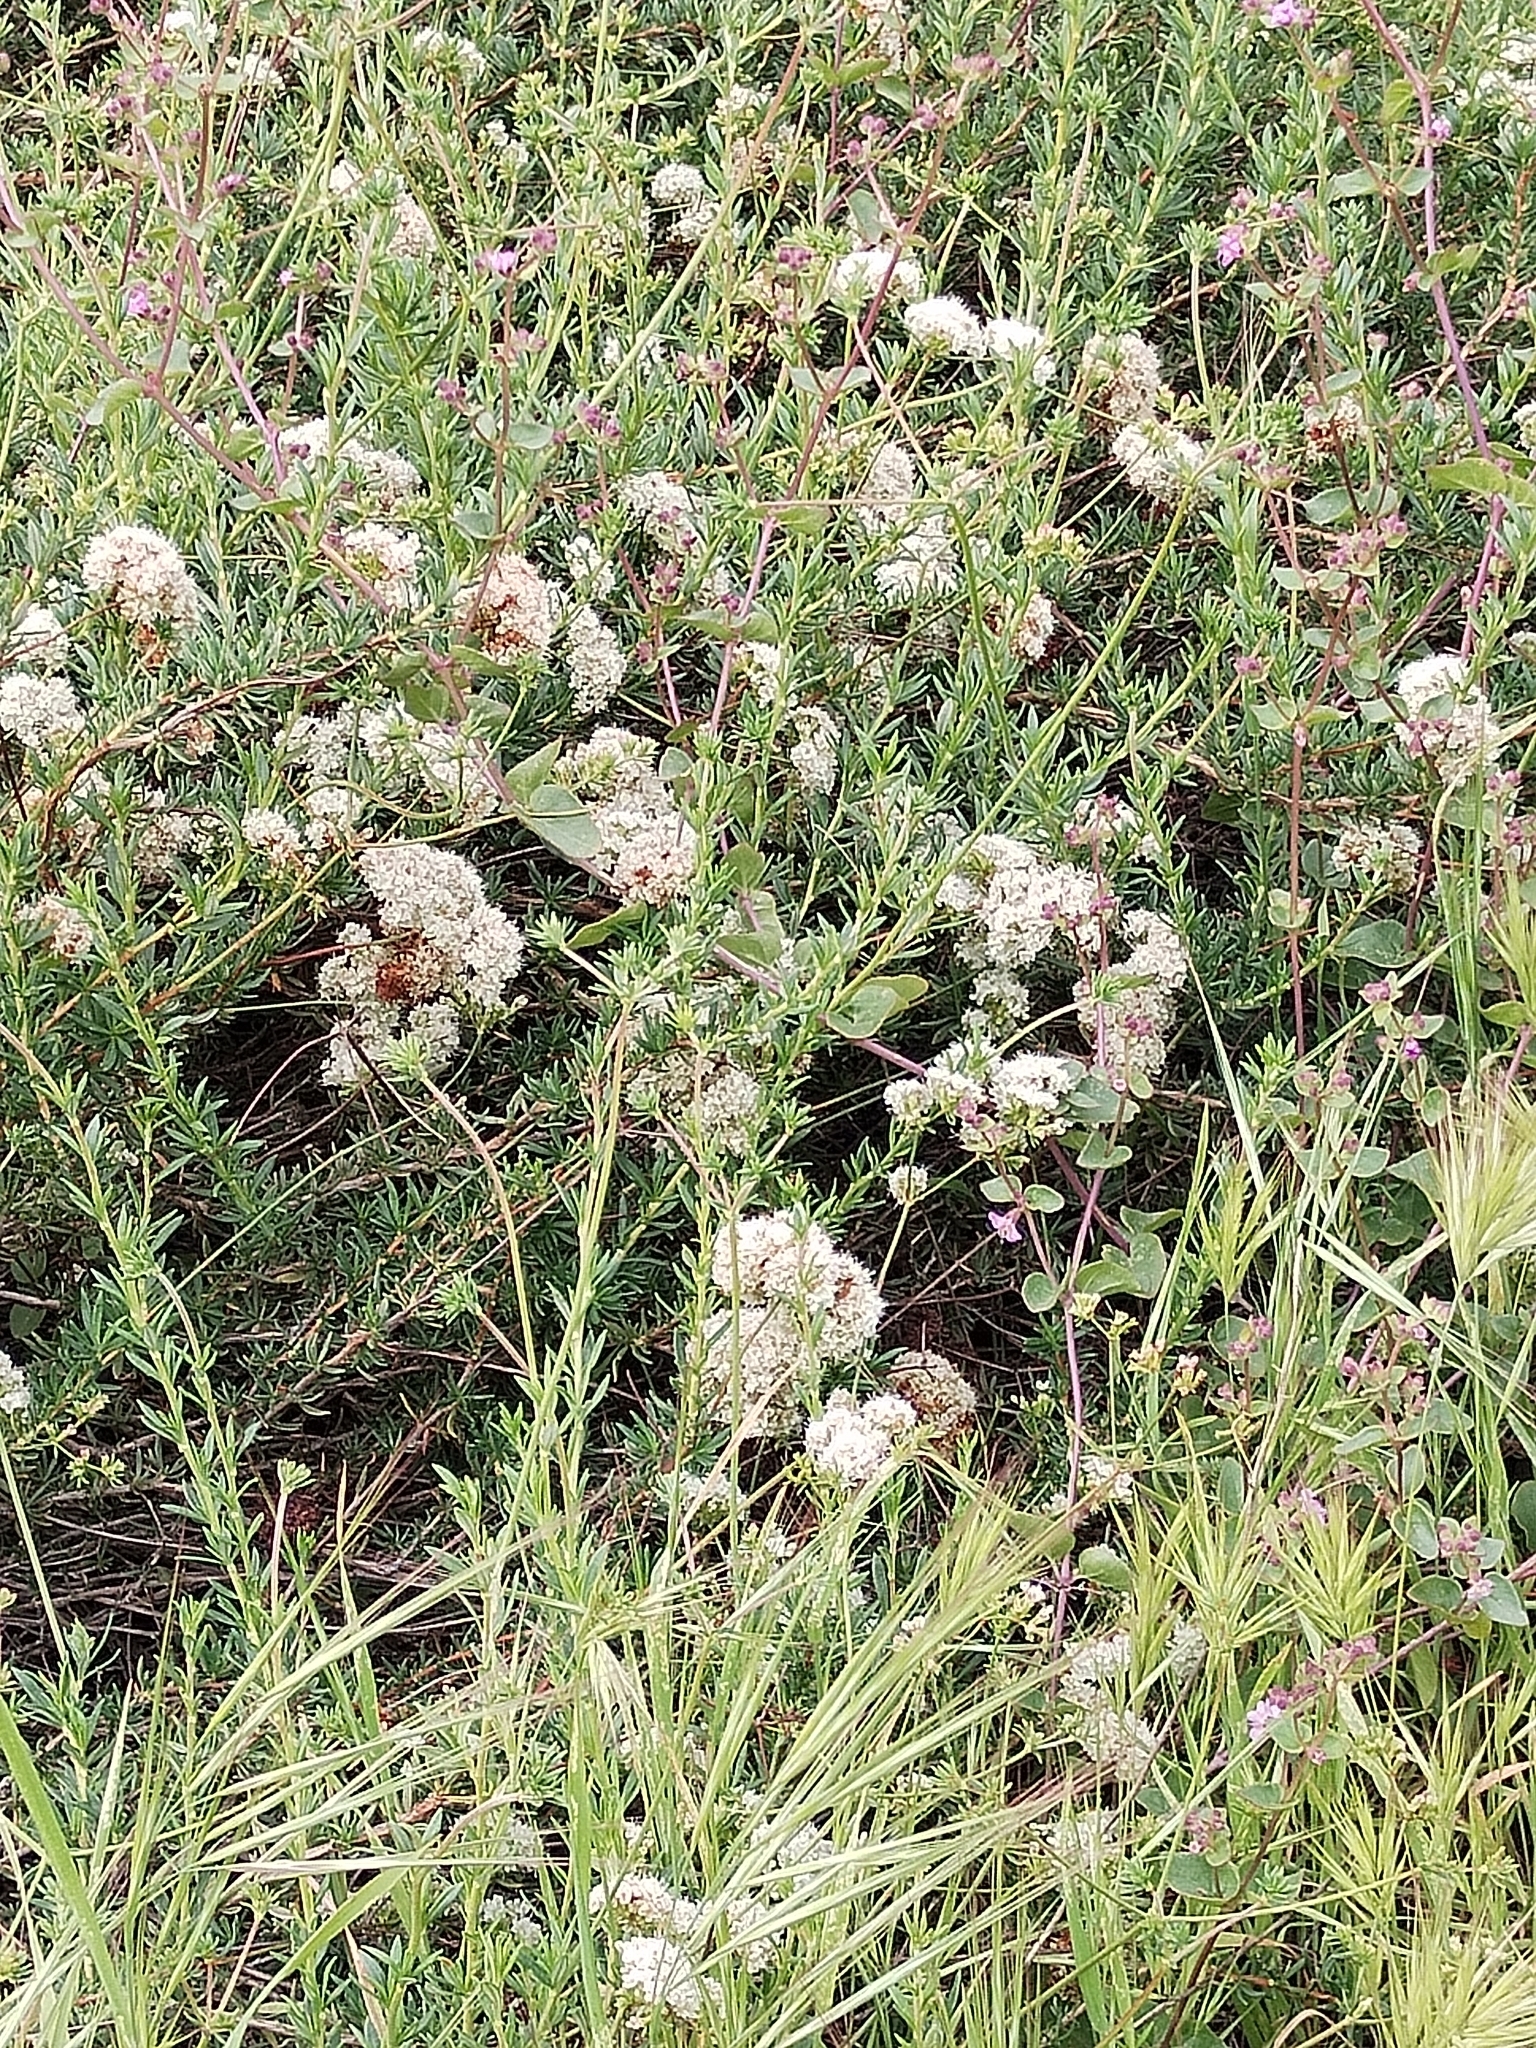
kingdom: Plantae
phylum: Tracheophyta
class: Magnoliopsida
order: Caryophyllales
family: Polygonaceae
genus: Eriogonum
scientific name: Eriogonum fasciculatum
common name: California wild buckwheat
